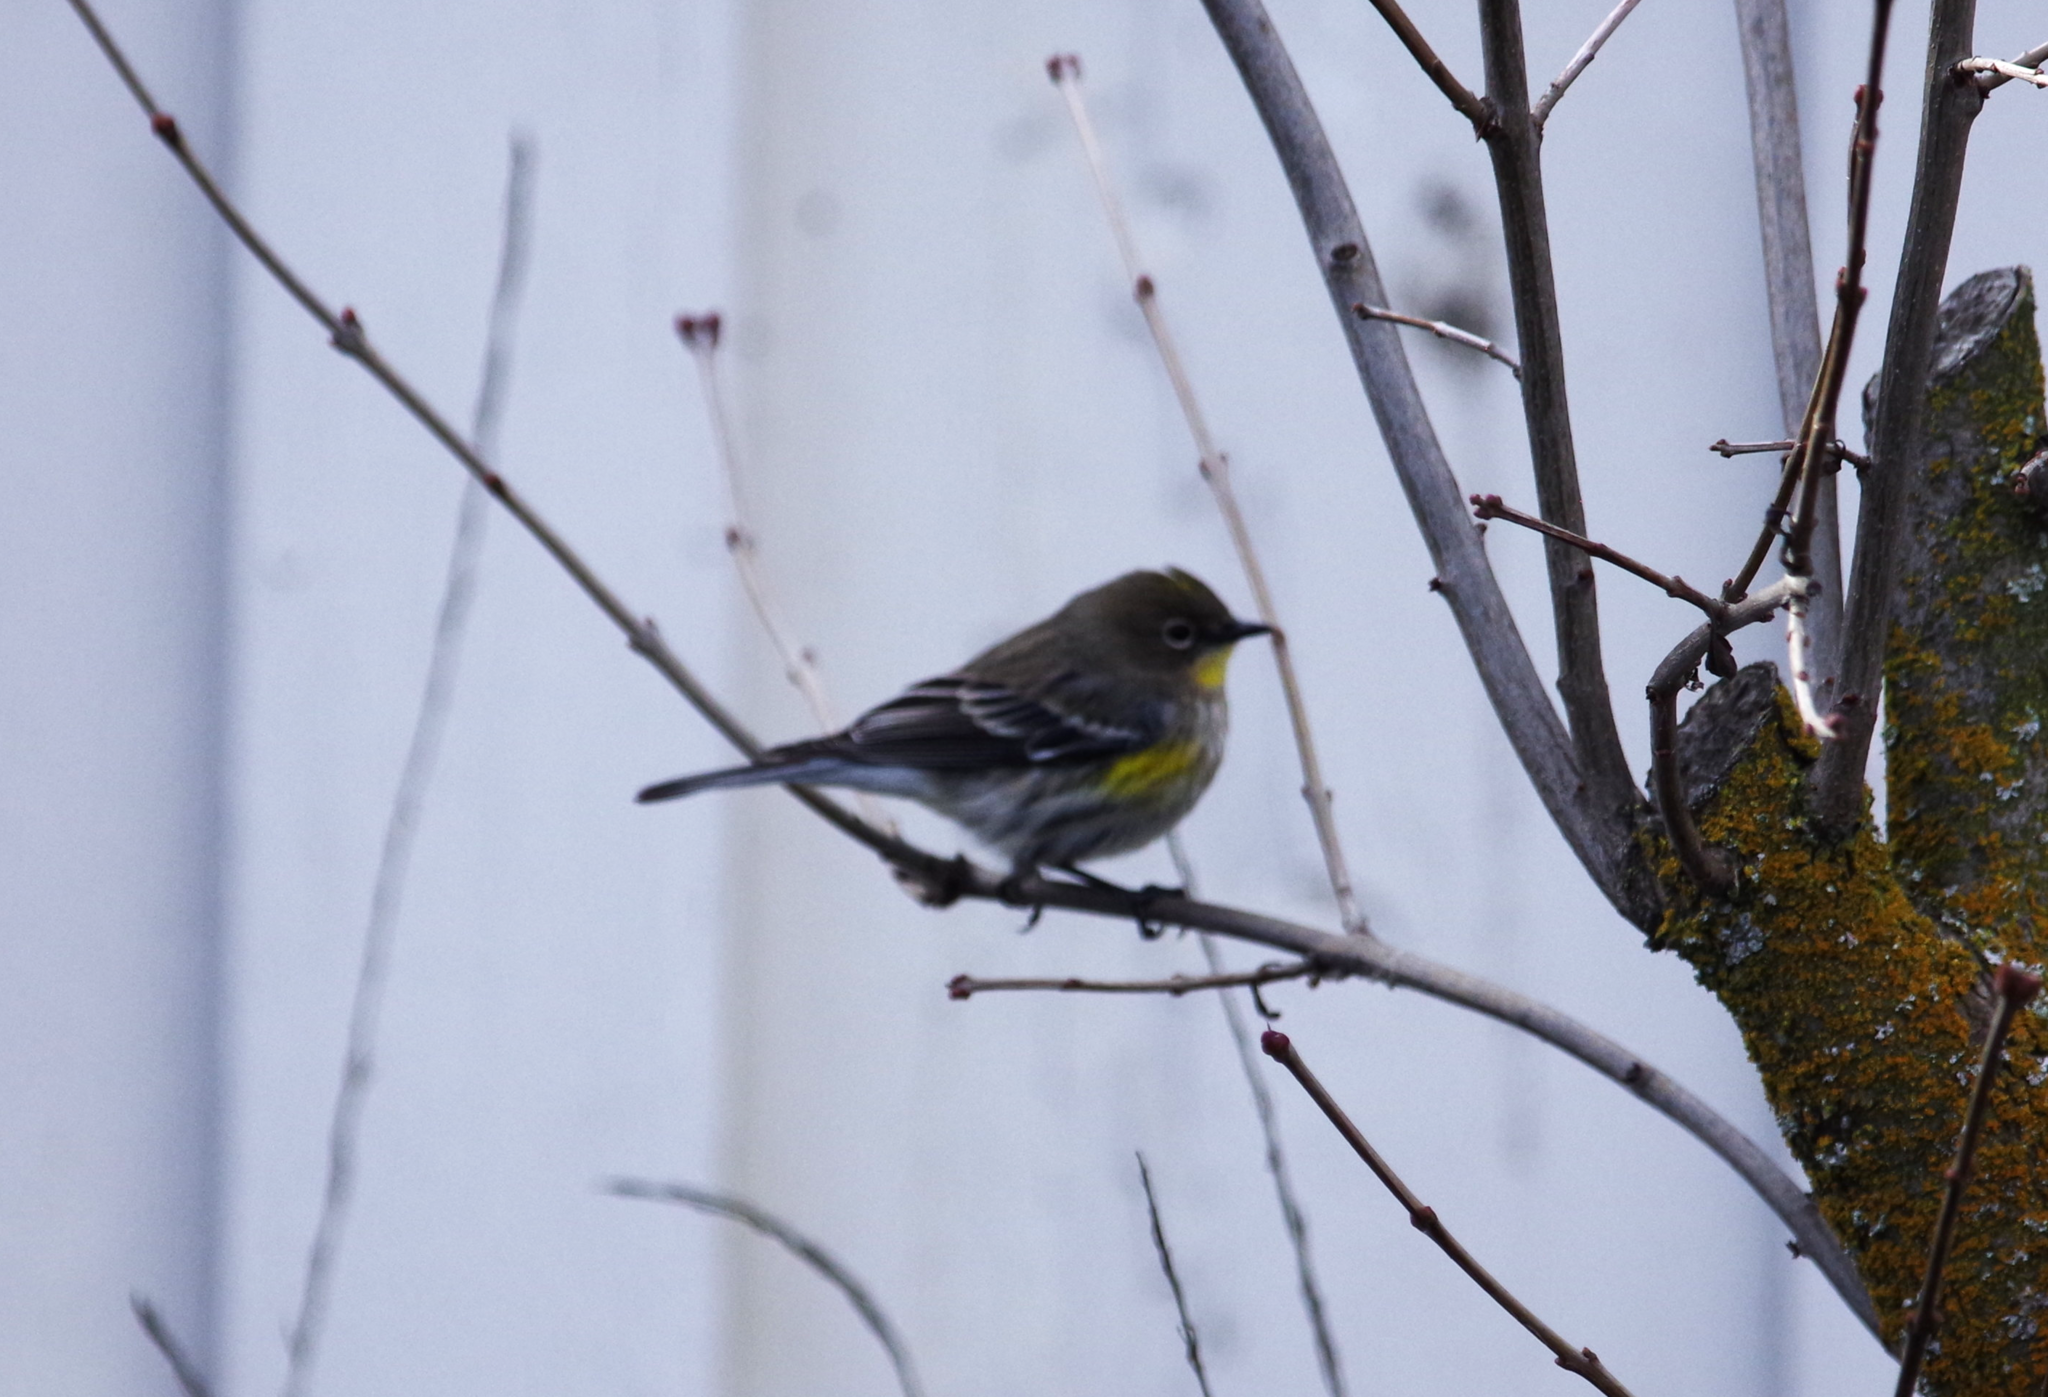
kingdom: Animalia
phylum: Chordata
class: Aves
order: Passeriformes
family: Parulidae
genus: Setophaga
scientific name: Setophaga coronata
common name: Myrtle warbler
